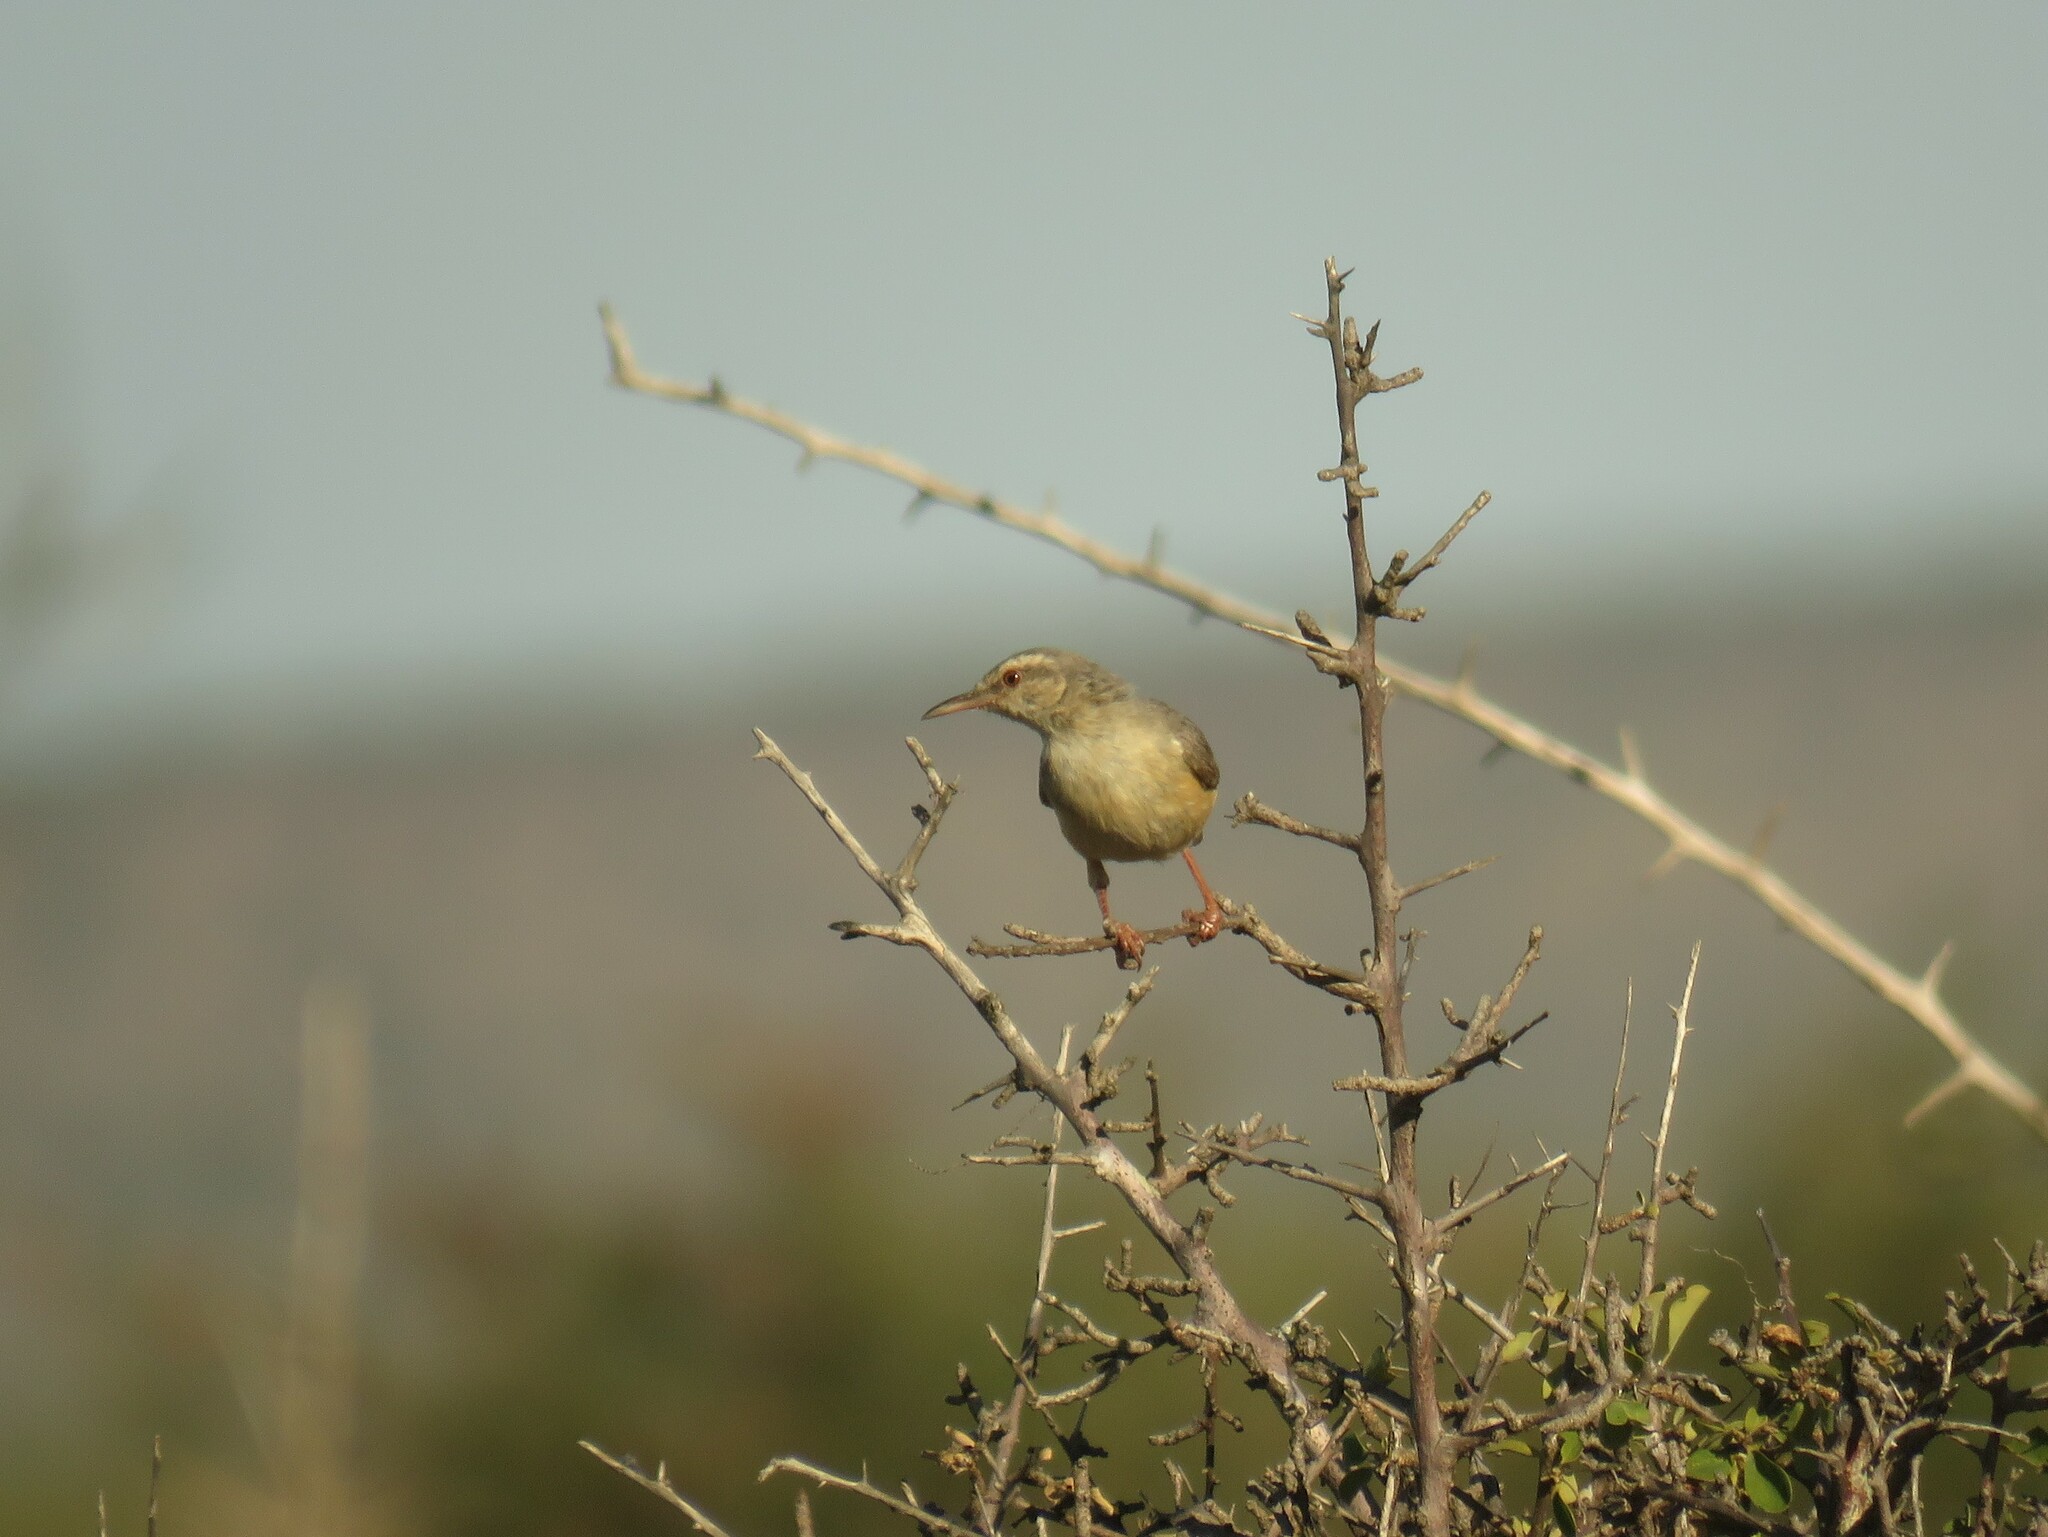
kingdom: Animalia
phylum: Chordata
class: Aves
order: Passeriformes
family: Macrosphenidae
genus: Sylvietta
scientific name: Sylvietta rufescens
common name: Long-billed crombec
